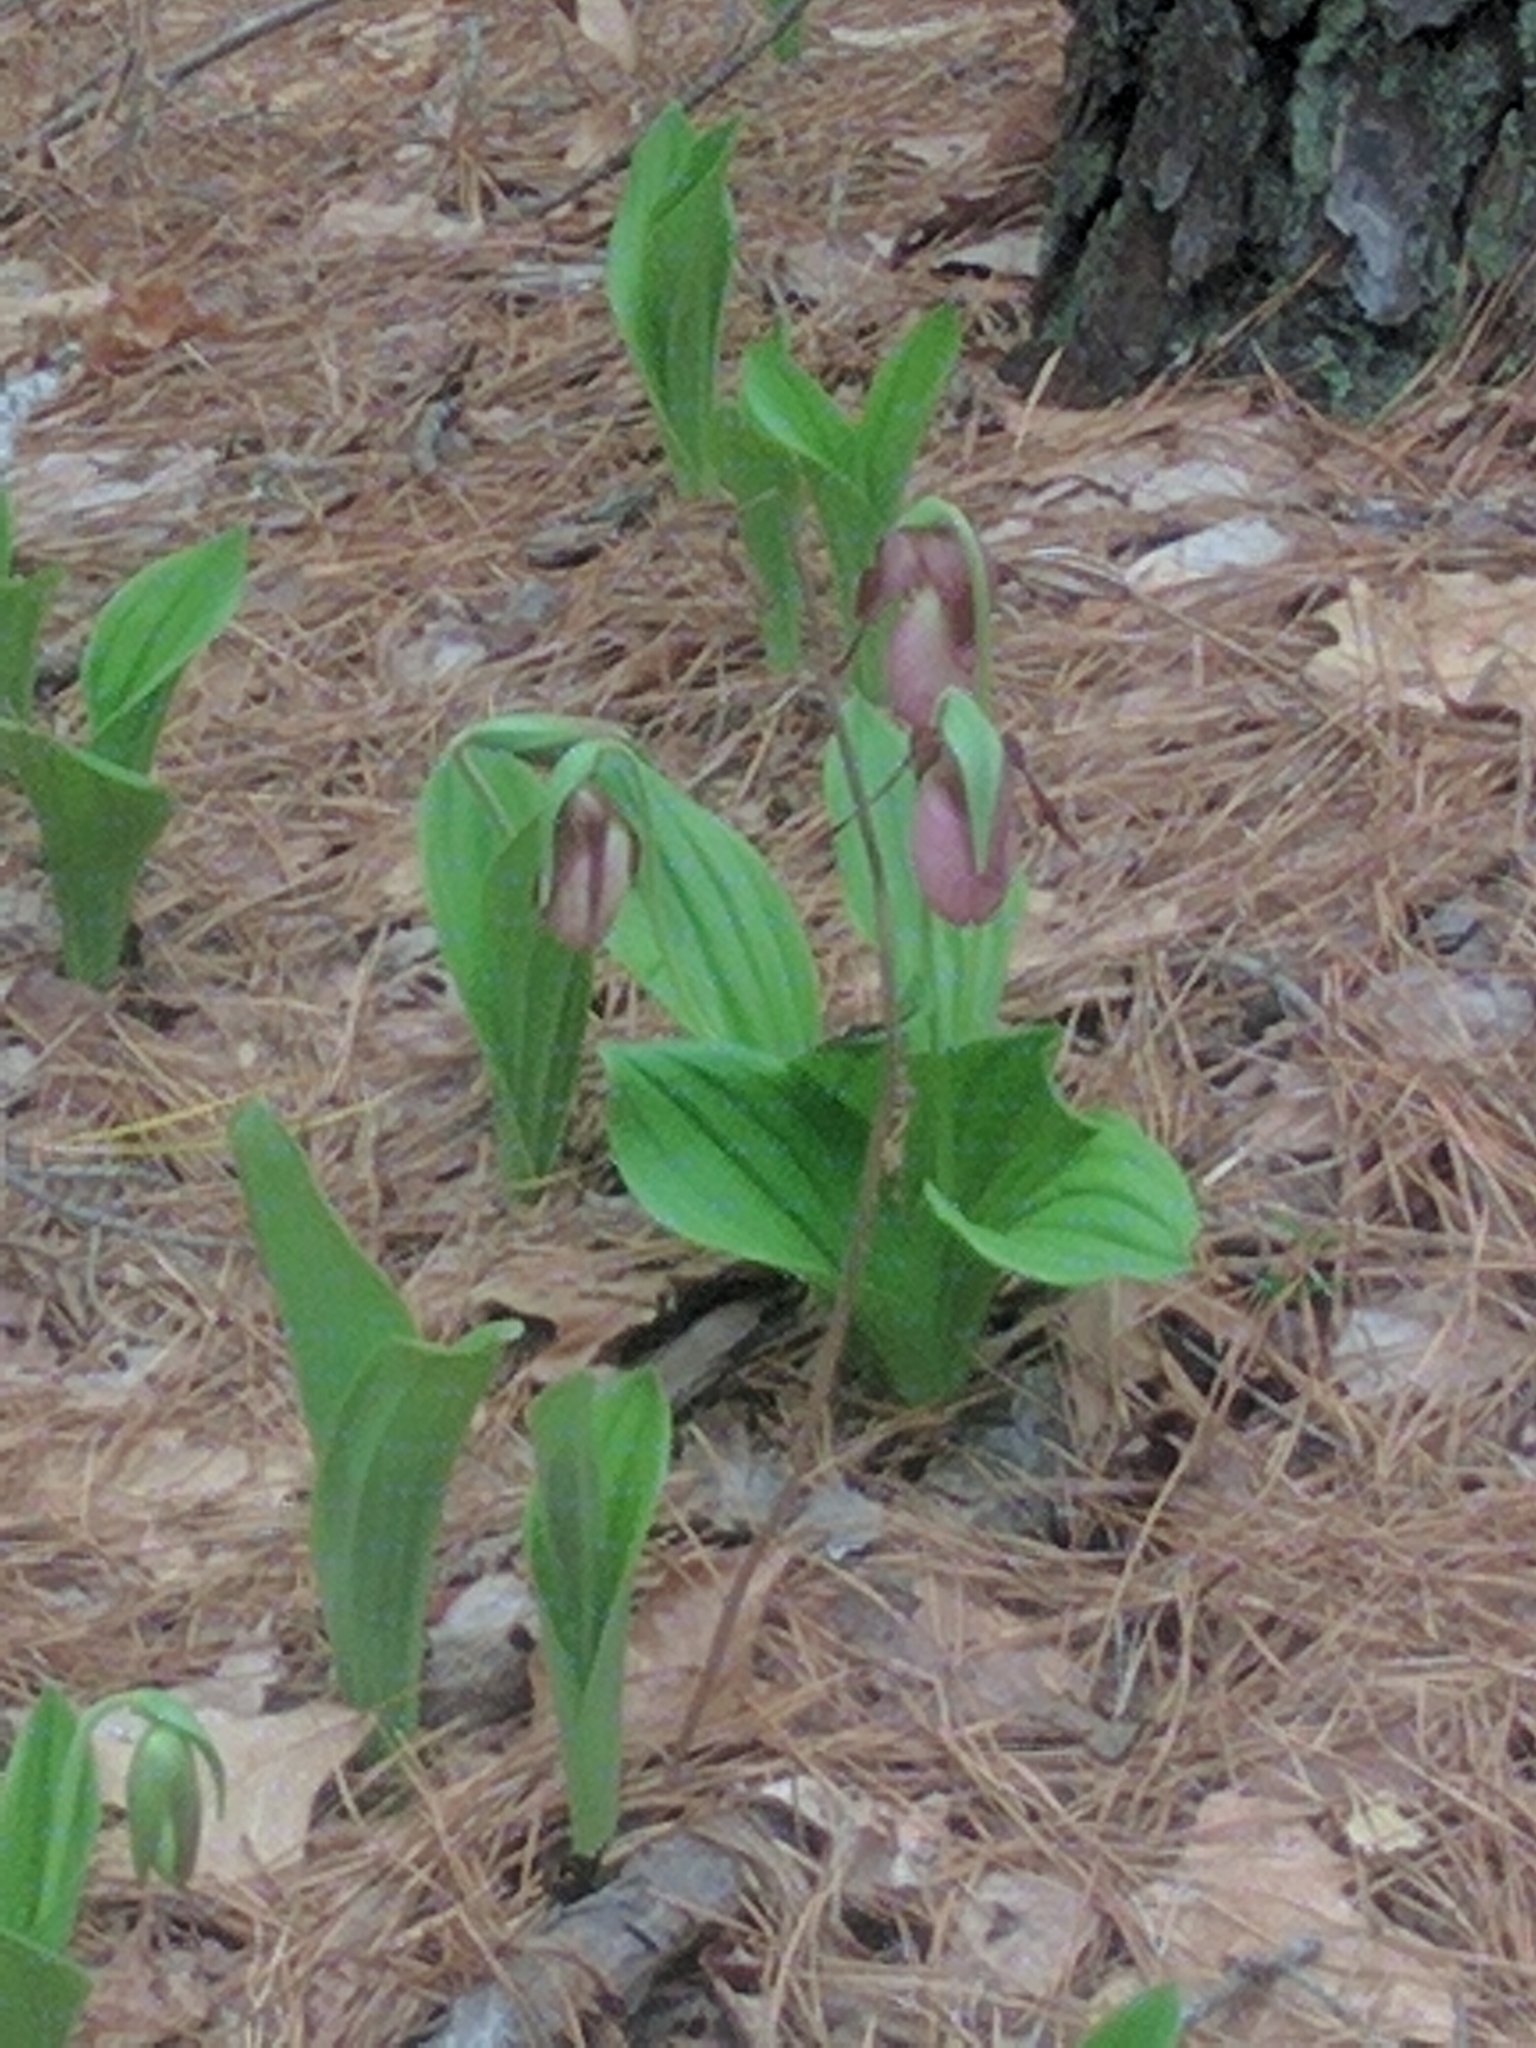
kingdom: Plantae
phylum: Tracheophyta
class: Liliopsida
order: Asparagales
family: Orchidaceae
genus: Cypripedium
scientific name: Cypripedium acaule
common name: Pink lady's-slipper
